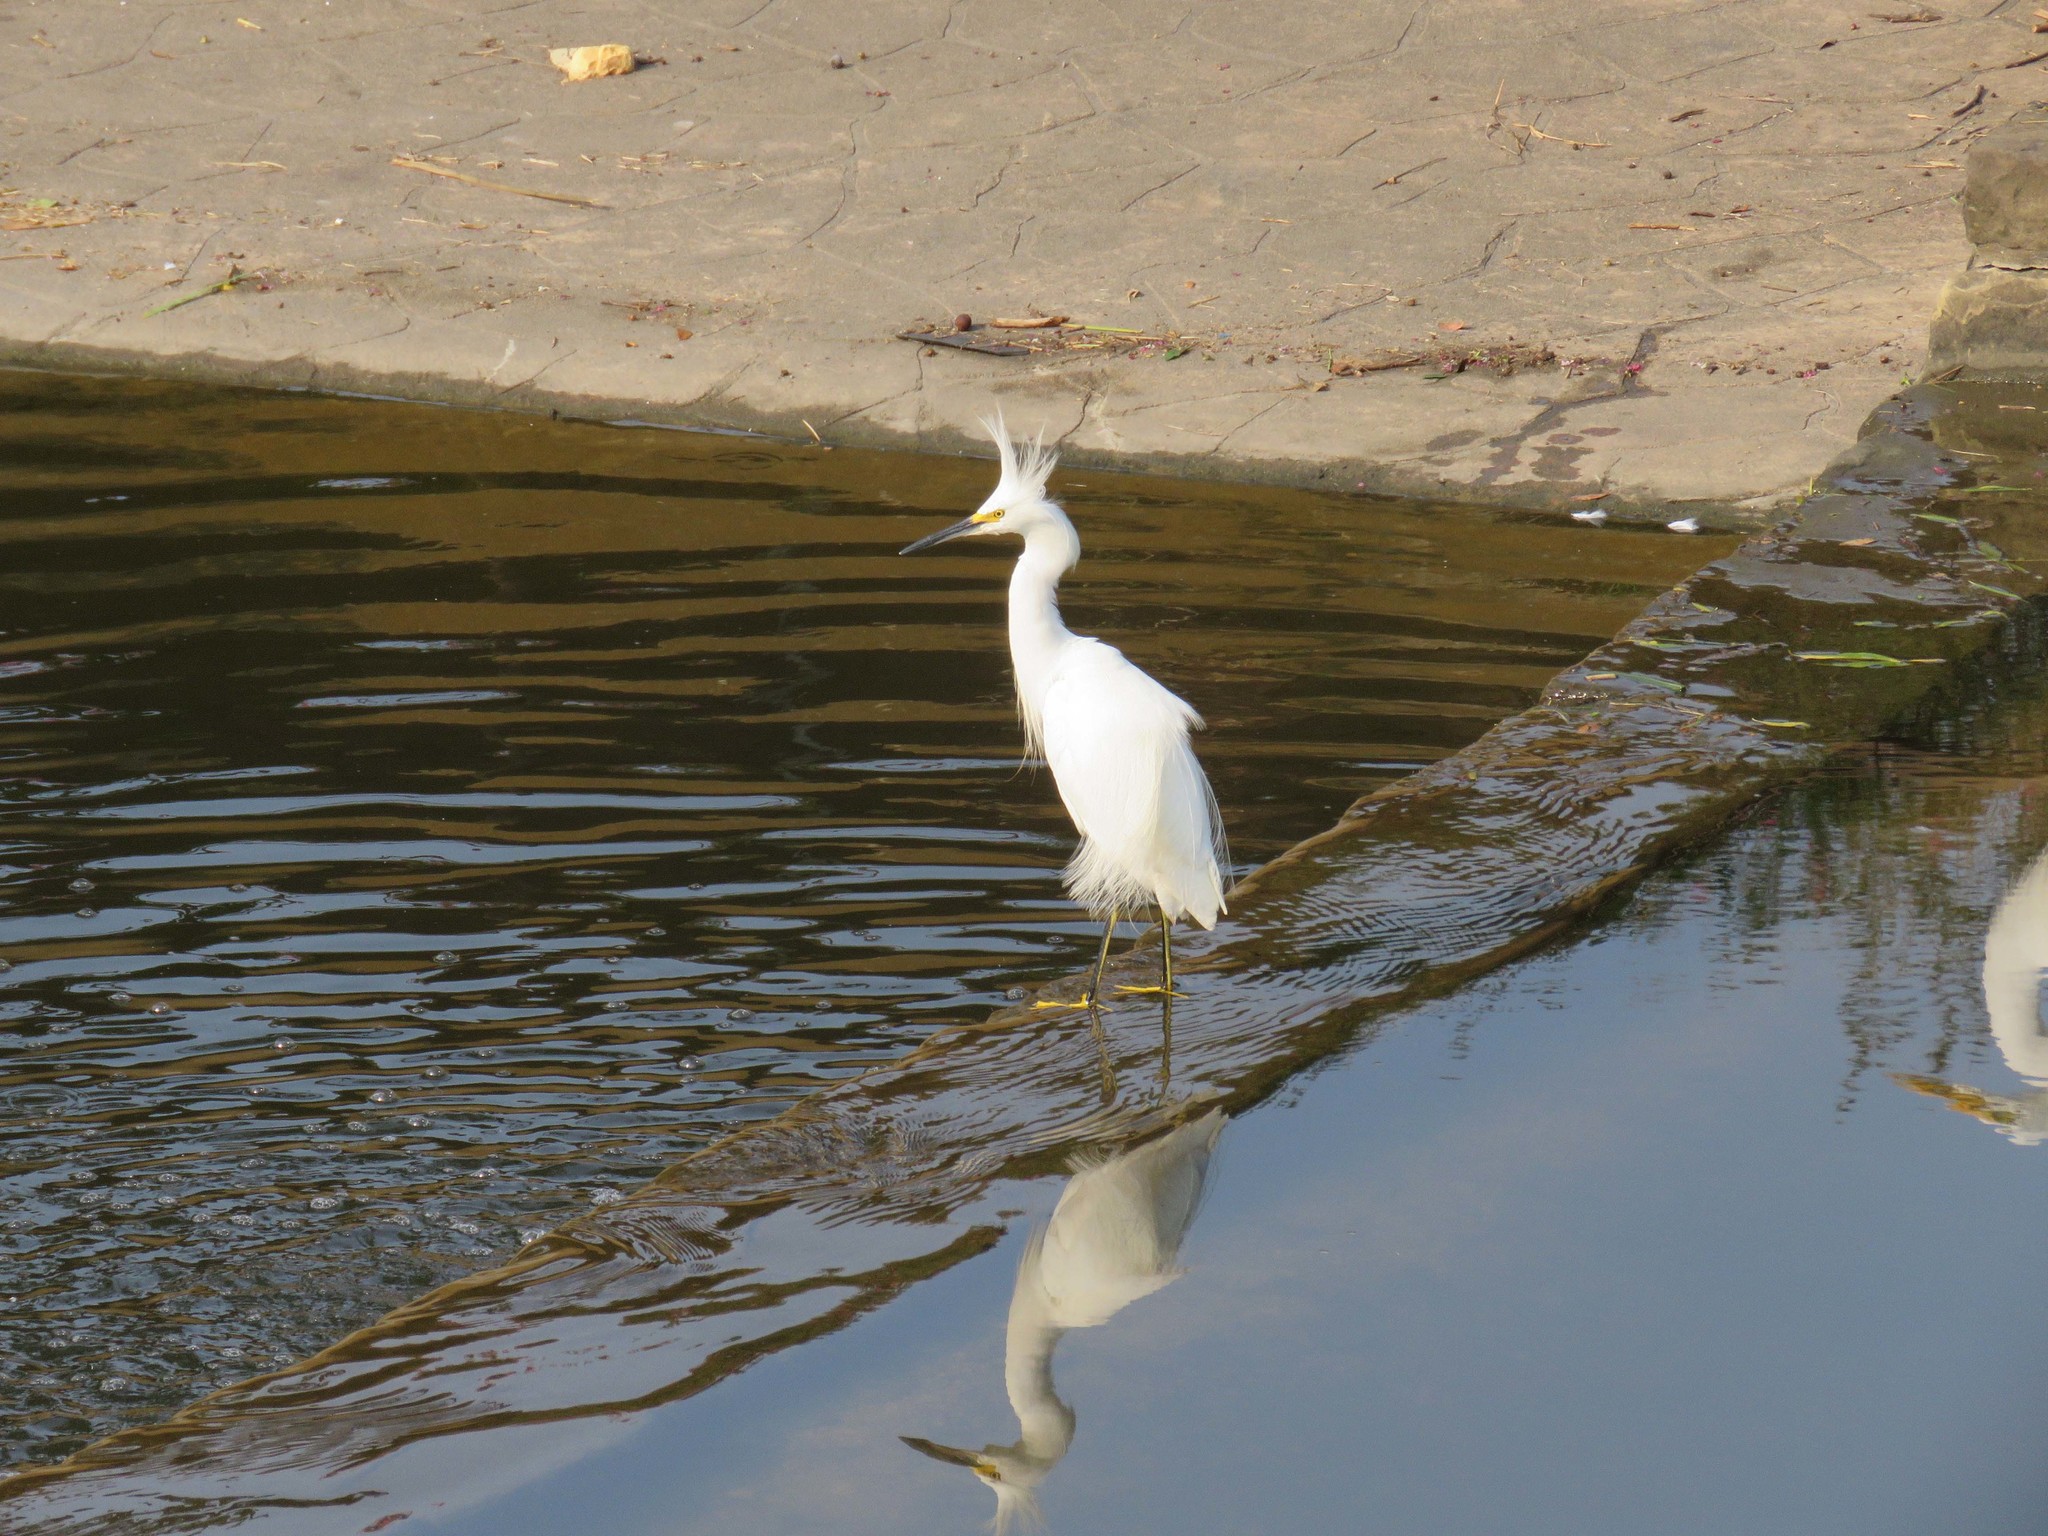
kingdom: Animalia
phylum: Chordata
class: Aves
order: Pelecaniformes
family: Ardeidae
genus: Egretta
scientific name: Egretta thula
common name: Snowy egret
